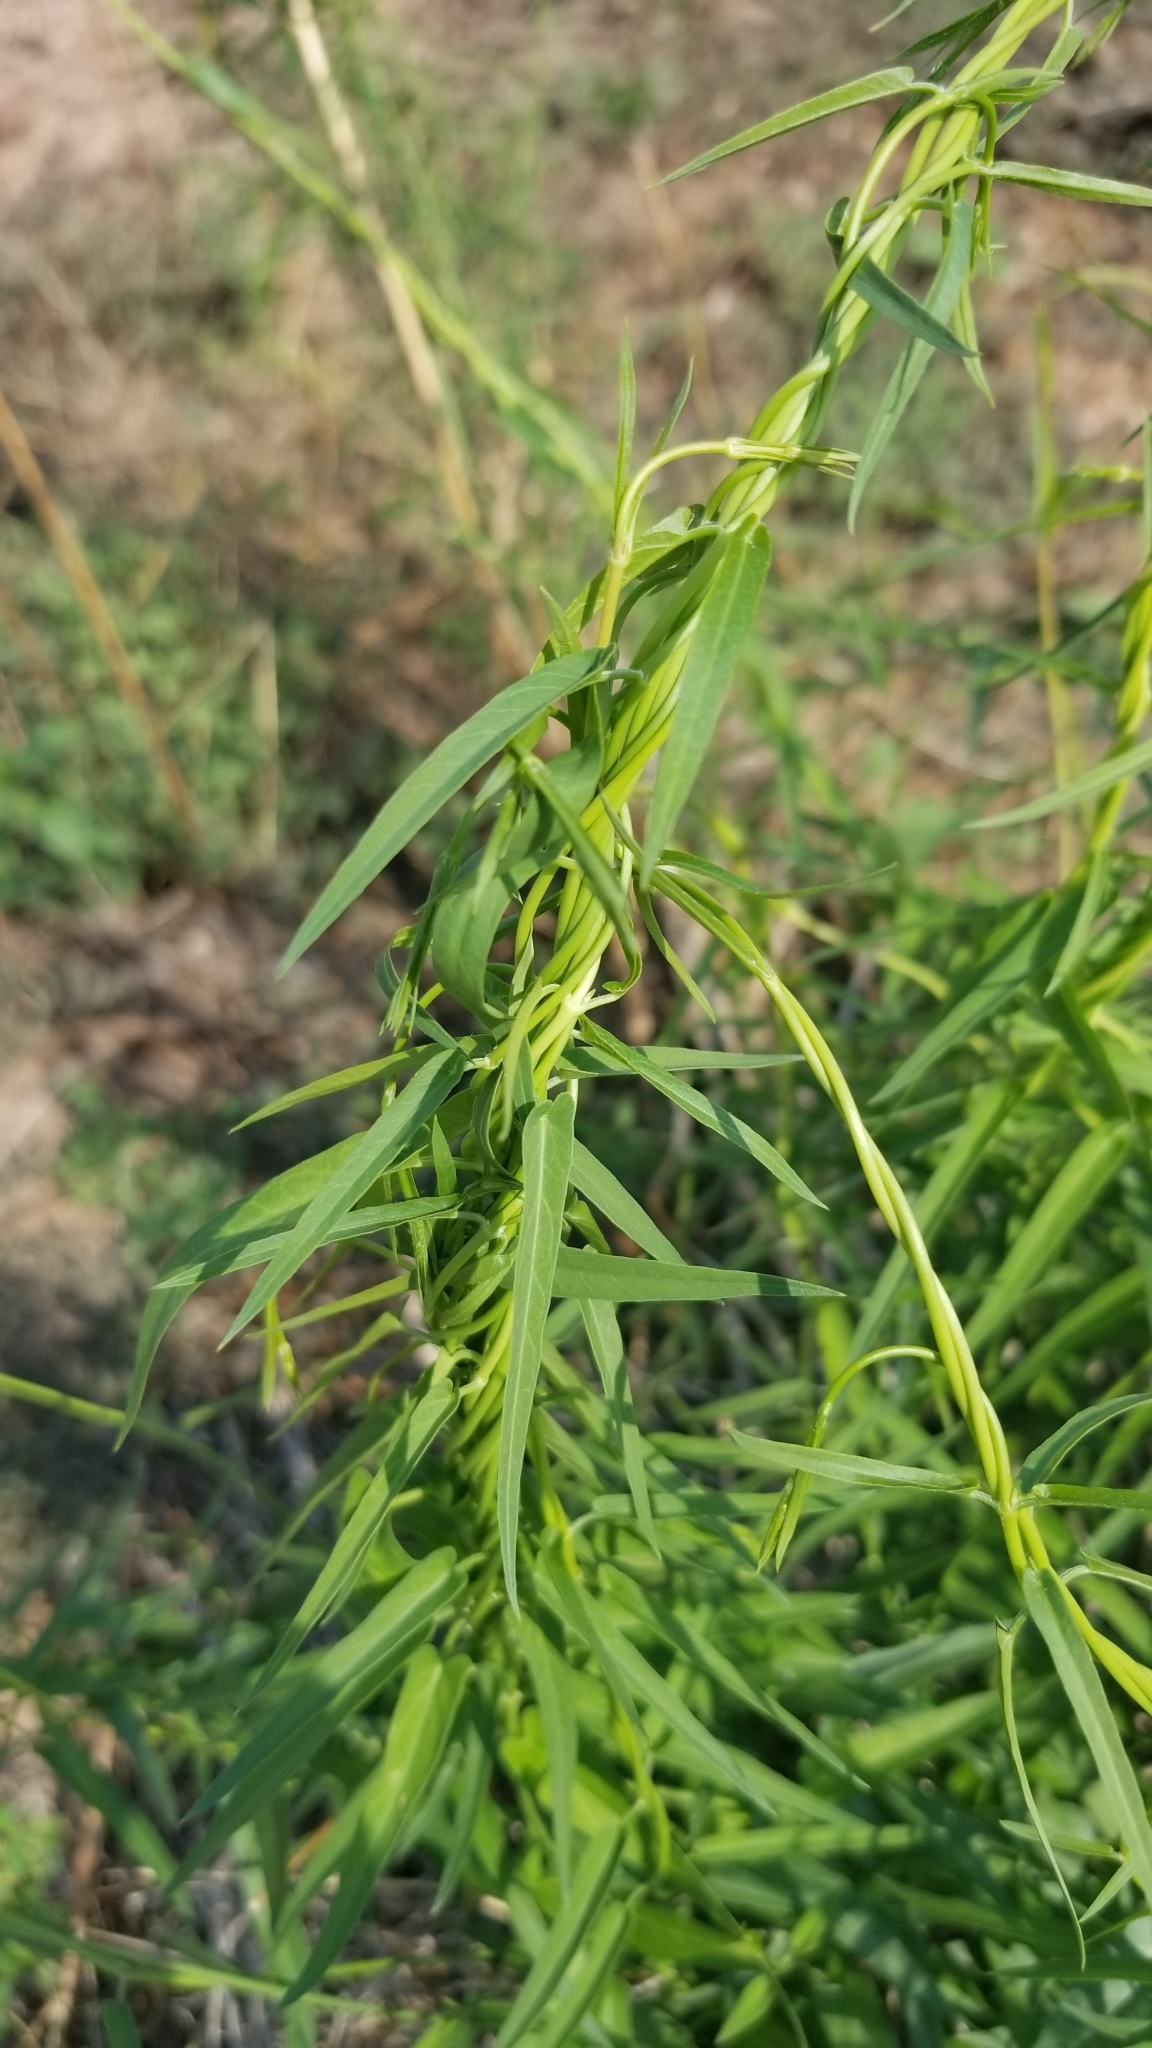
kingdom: Plantae
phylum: Tracheophyta
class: Magnoliopsida
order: Gentianales
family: Apocynaceae
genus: Funastrum
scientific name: Funastrum heterophyllum
